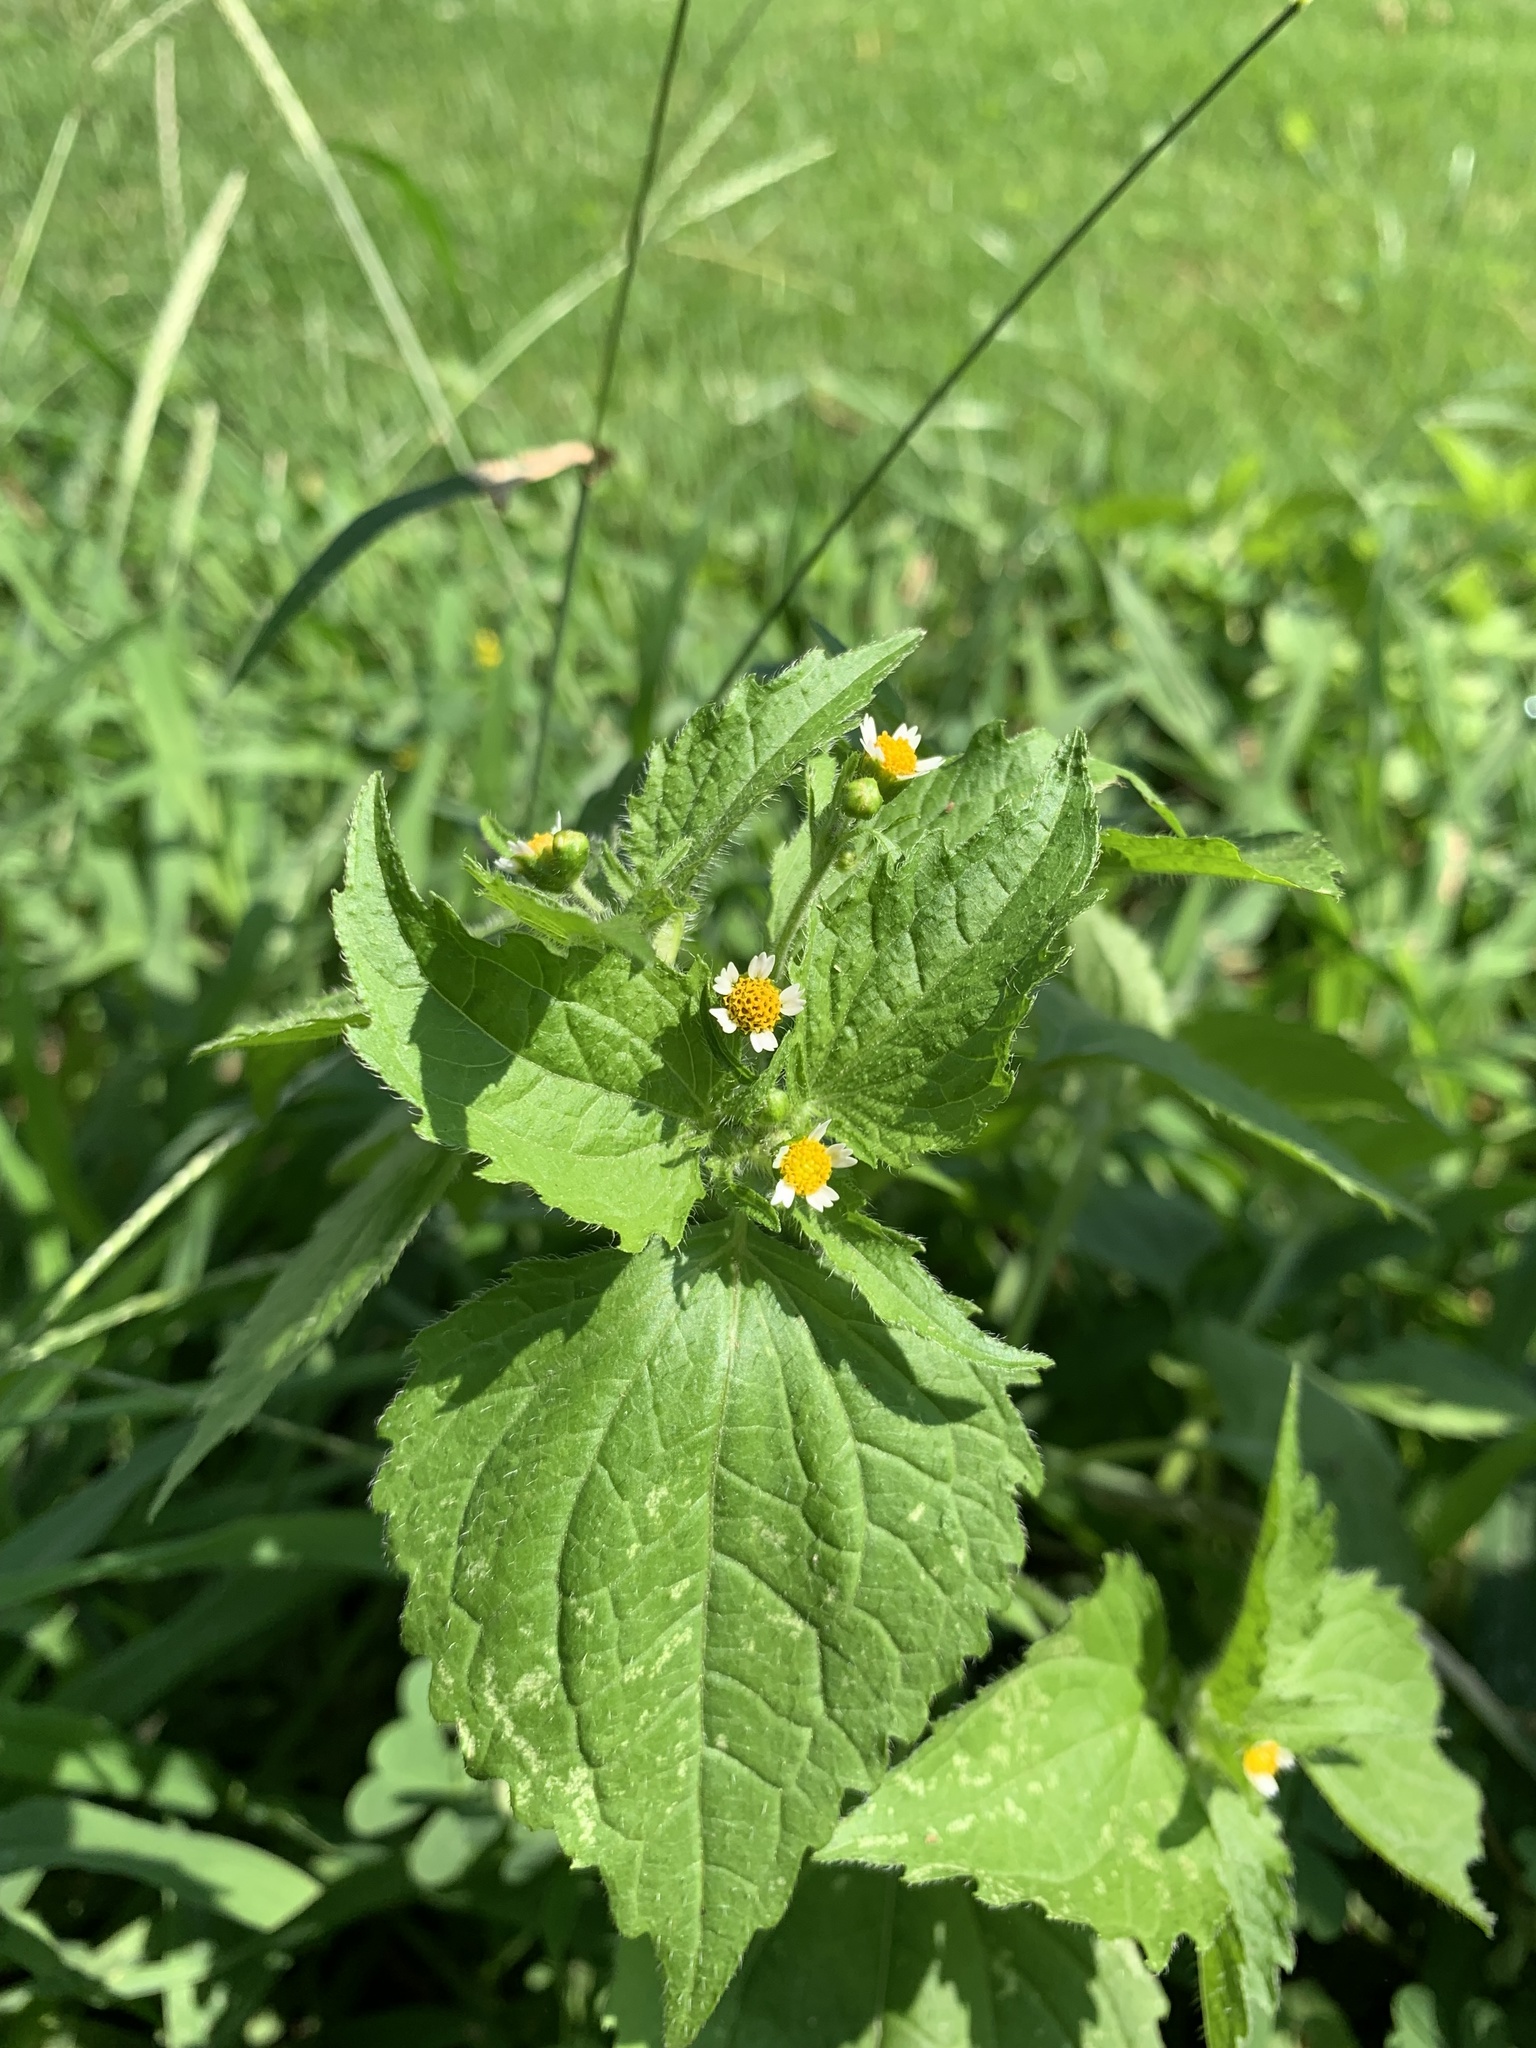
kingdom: Plantae
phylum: Tracheophyta
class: Magnoliopsida
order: Asterales
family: Asteraceae
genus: Galinsoga
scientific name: Galinsoga quadriradiata
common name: Shaggy soldier
